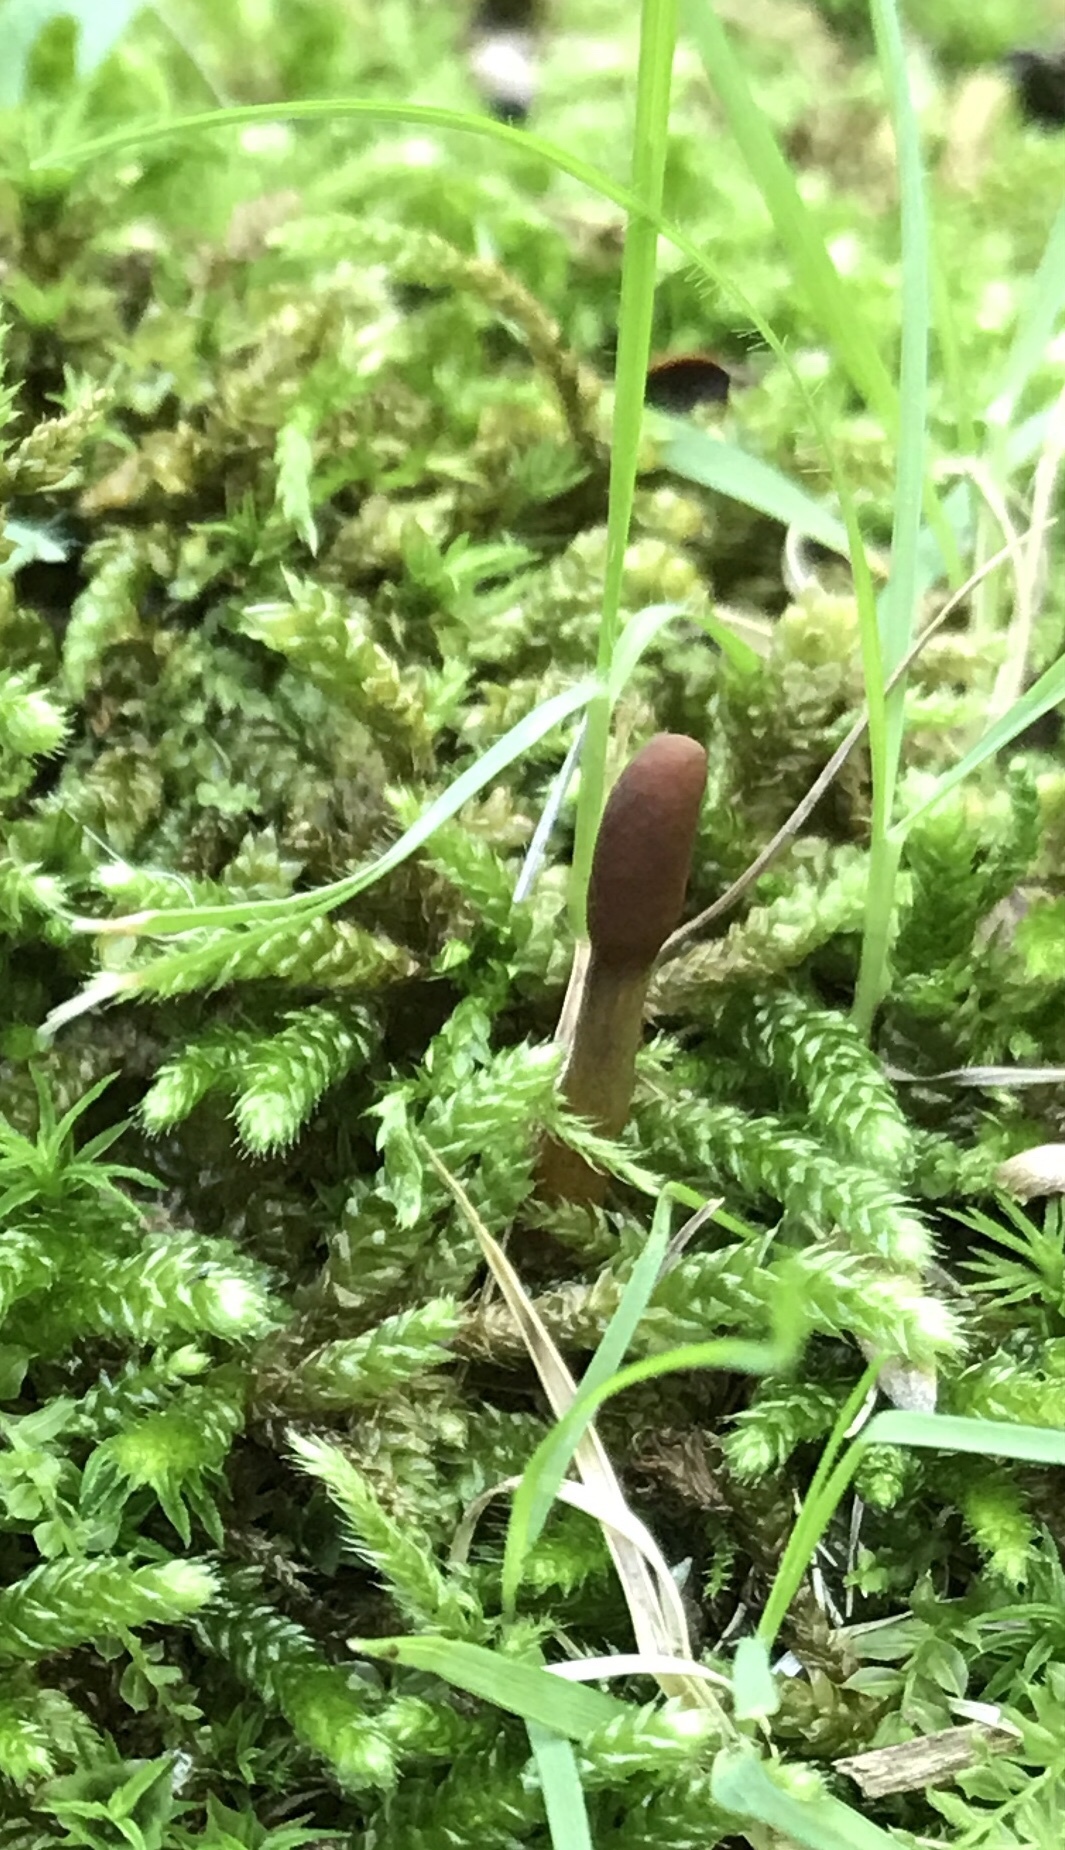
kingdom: Fungi
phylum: Ascomycota
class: Sordariomycetes
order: Hypocreales
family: Ophiocordycipitaceae
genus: Tolypocladium
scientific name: Tolypocladium ophioglossoides
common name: Snaketongue truffleclub
